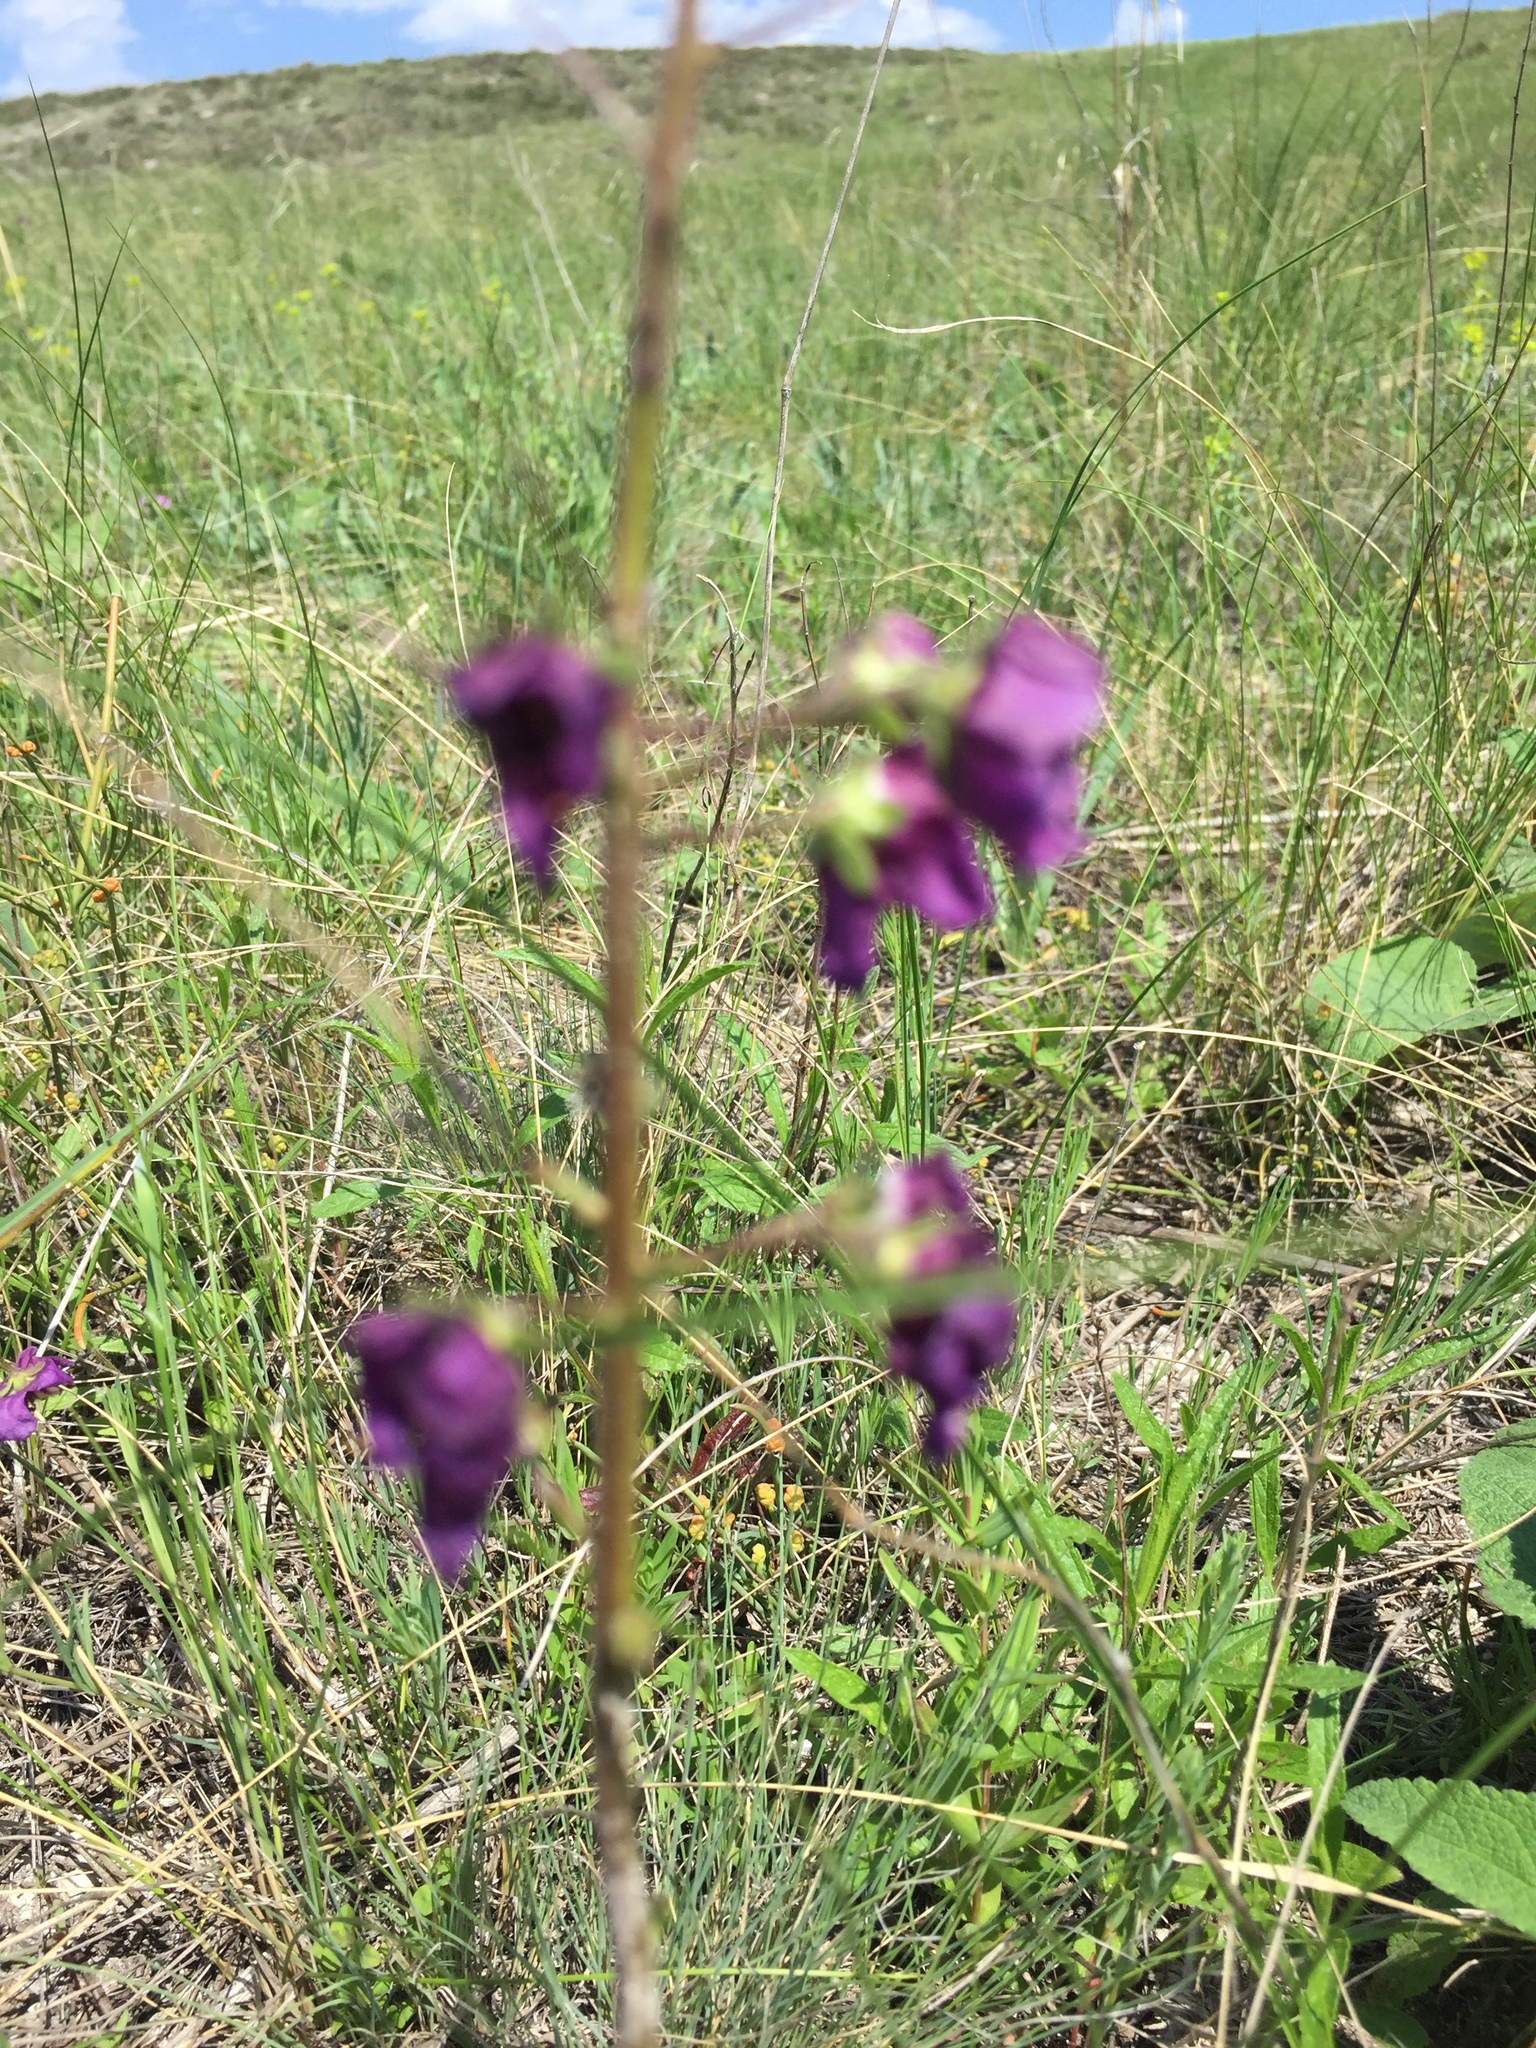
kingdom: Plantae
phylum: Tracheophyta
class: Magnoliopsida
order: Lamiales
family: Scrophulariaceae
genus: Verbascum
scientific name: Verbascum phoeniceum
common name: Purple mullein
